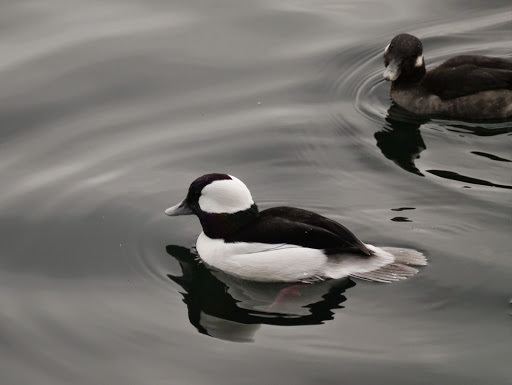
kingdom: Animalia
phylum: Chordata
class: Aves
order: Anseriformes
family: Anatidae
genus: Bucephala
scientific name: Bucephala albeola
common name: Bufflehead
